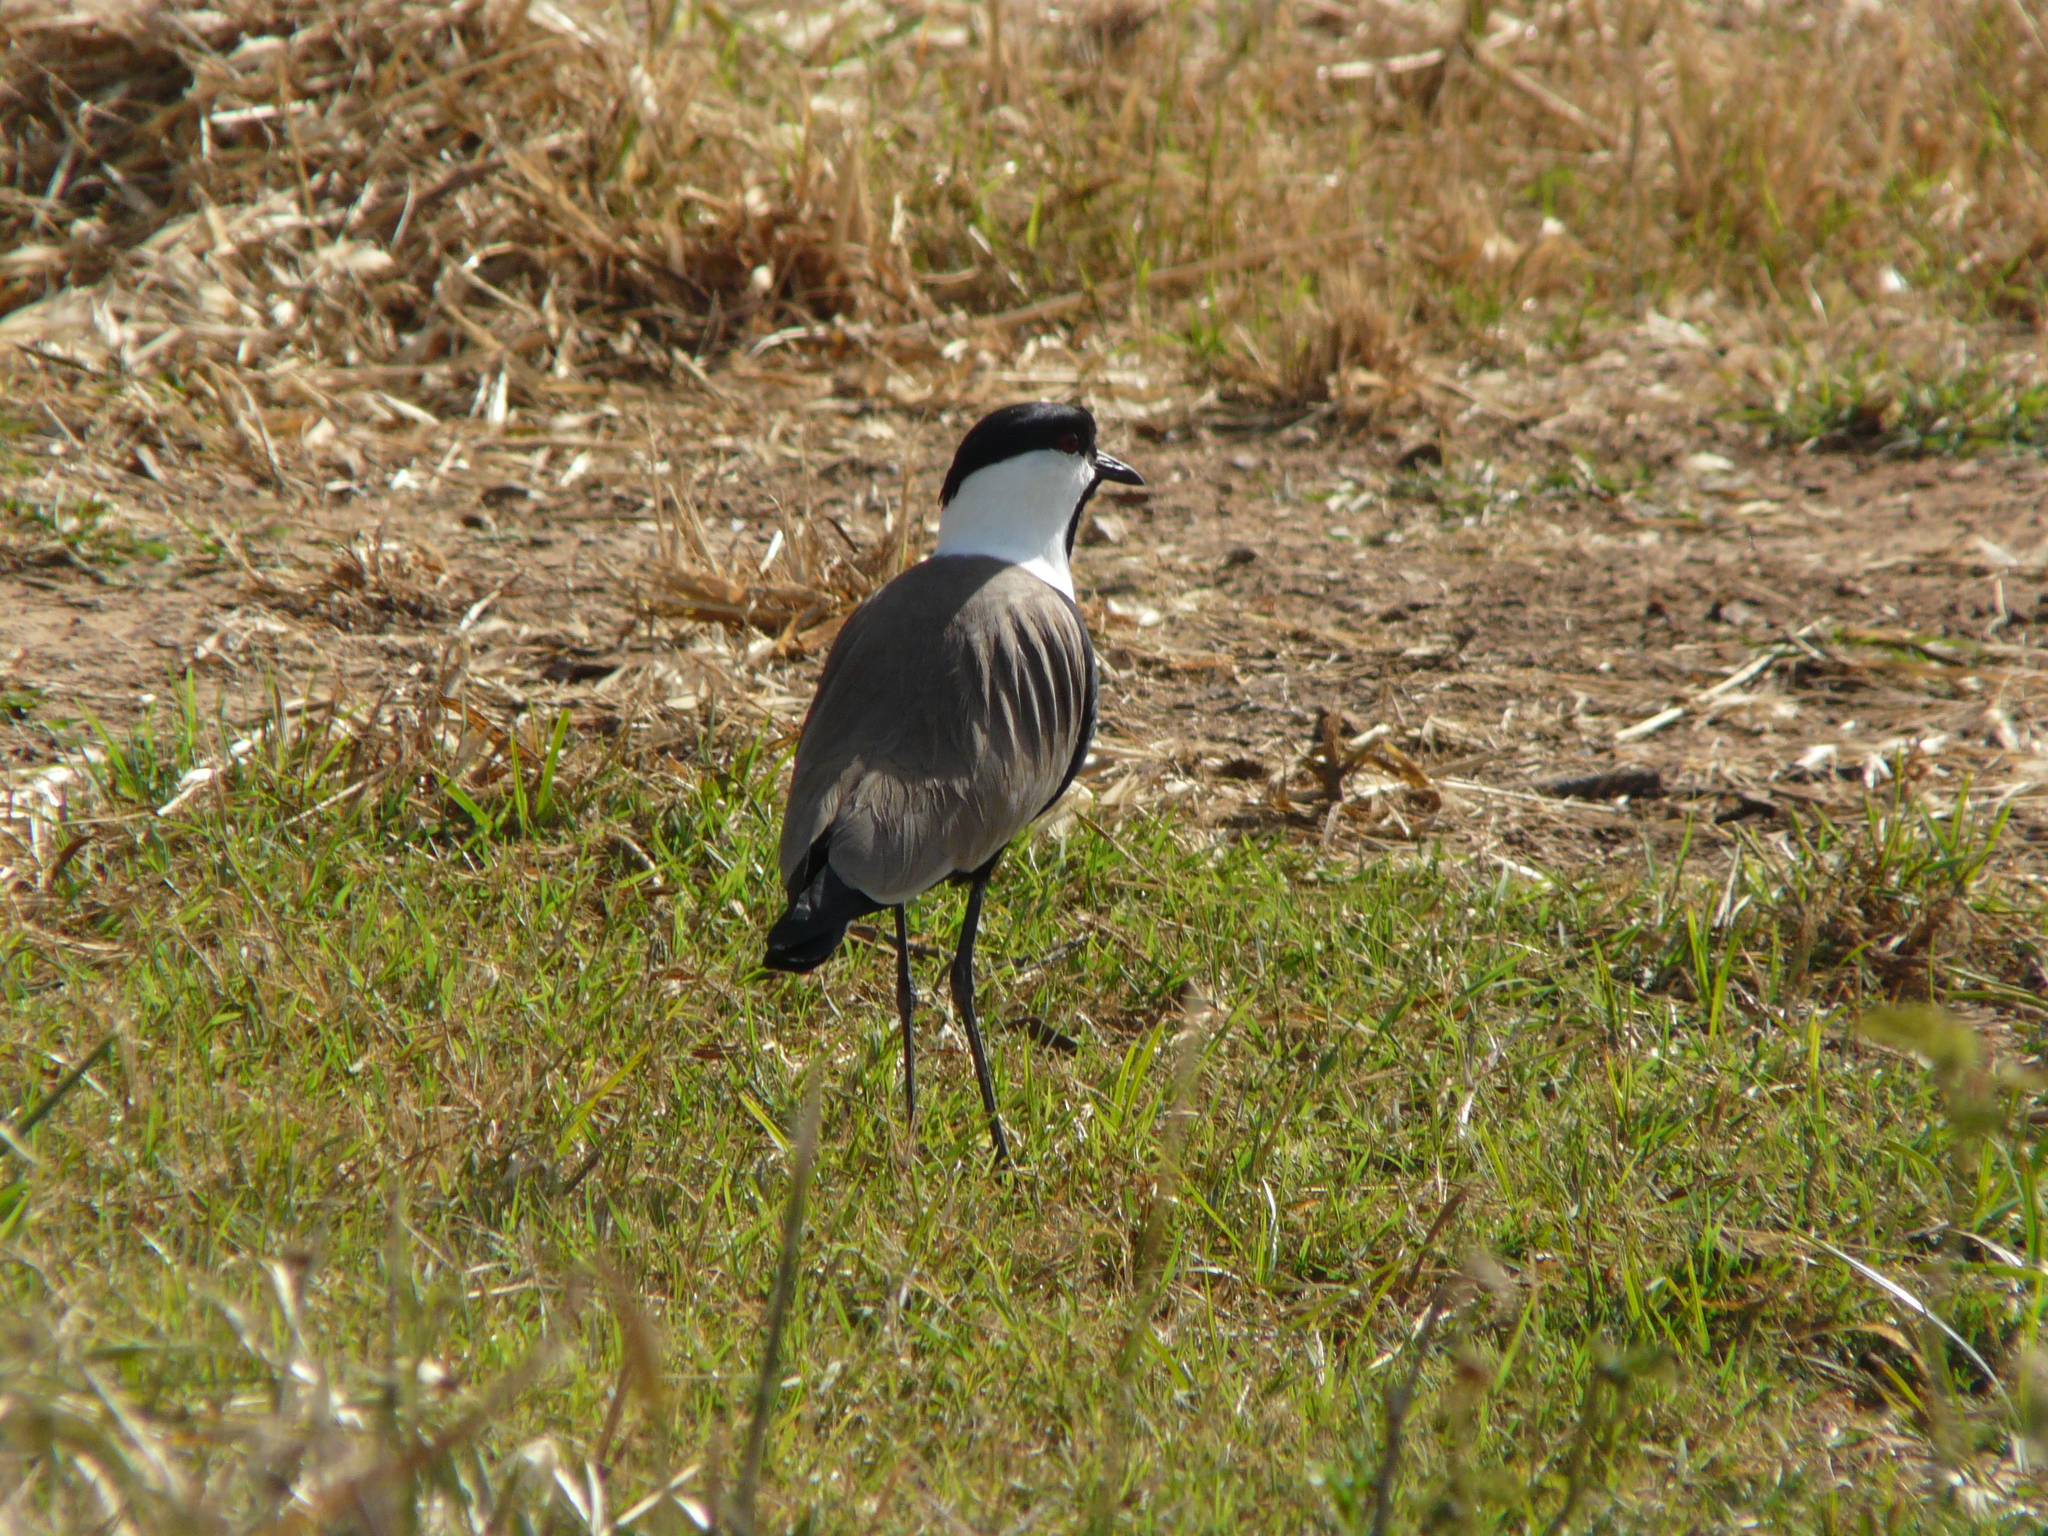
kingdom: Animalia
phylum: Chordata
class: Aves
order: Charadriiformes
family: Charadriidae
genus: Vanellus
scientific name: Vanellus spinosus
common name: Spur-winged lapwing
